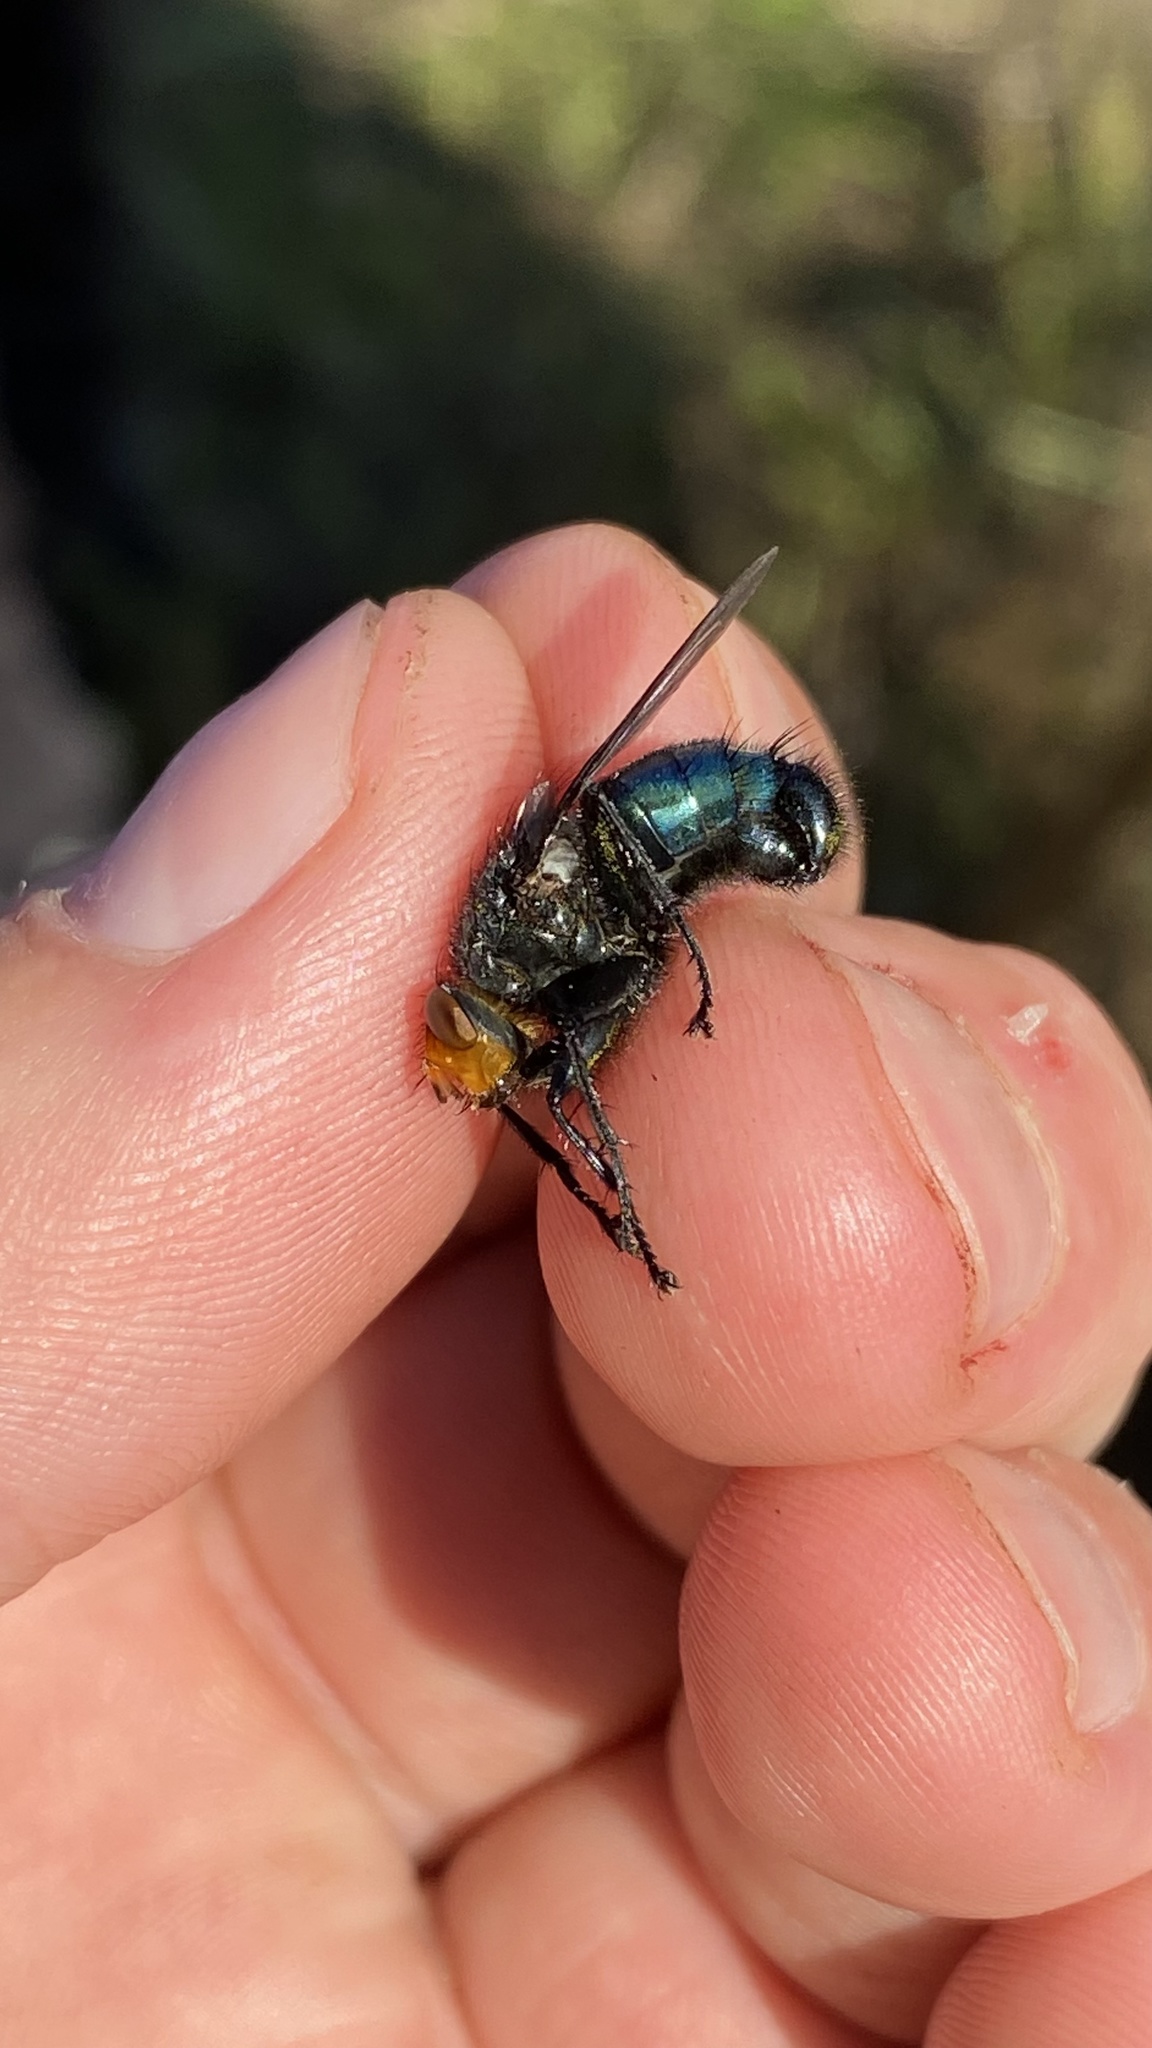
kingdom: Animalia
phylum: Arthropoda
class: Insecta
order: Diptera
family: Calliphoridae
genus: Cynomya
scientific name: Cynomya mortuorum
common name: Bluebottle blow fly
